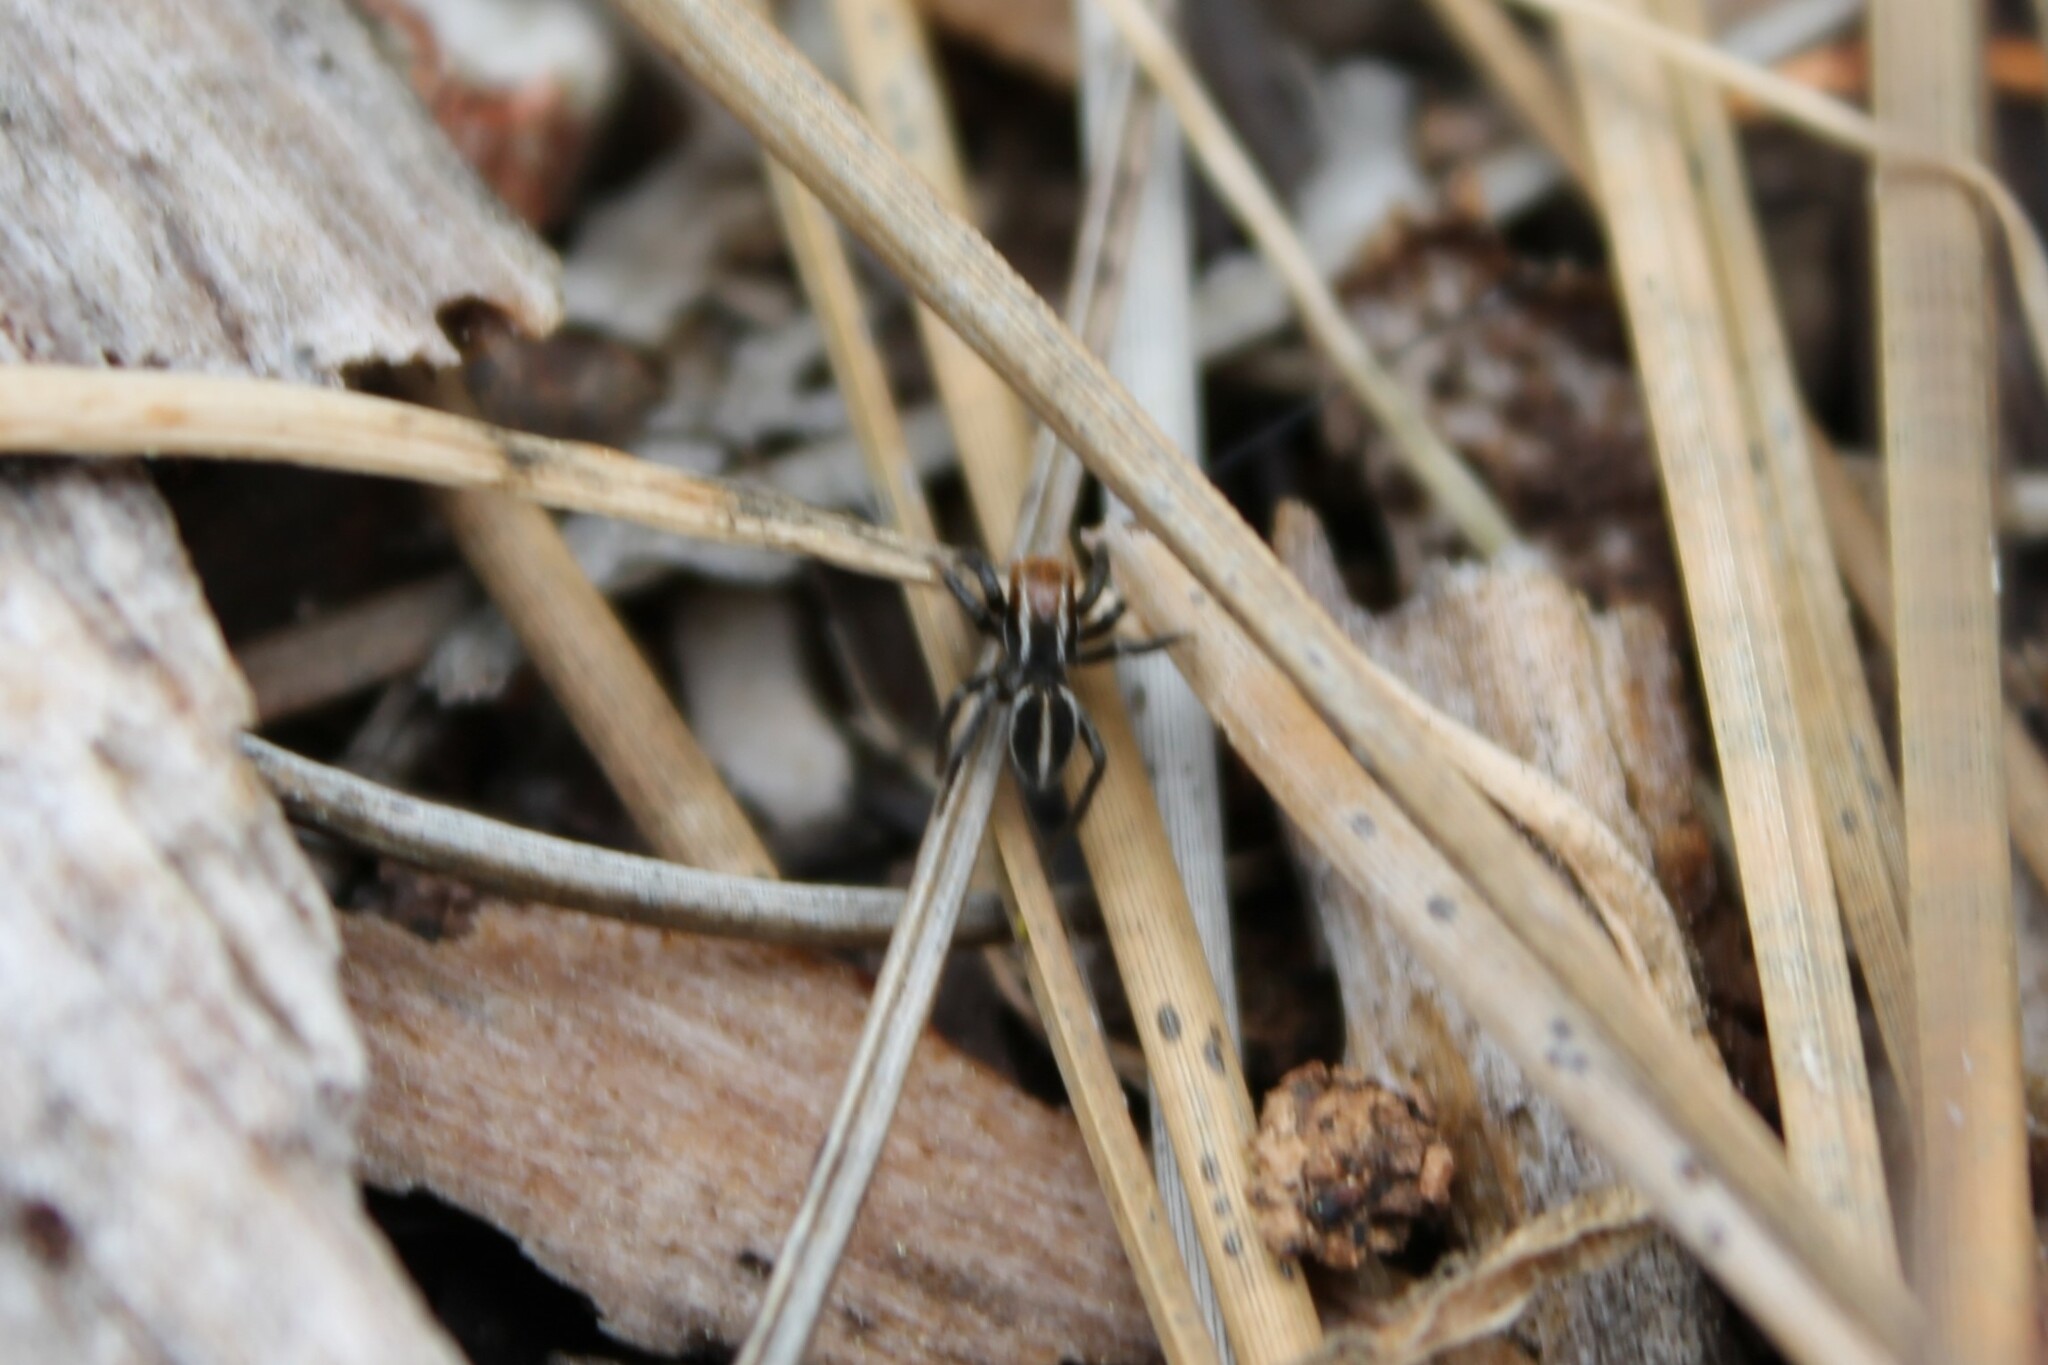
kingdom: Animalia
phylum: Arthropoda
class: Arachnida
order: Araneae
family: Salticidae
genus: Phlegra
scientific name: Phlegra hentzi
